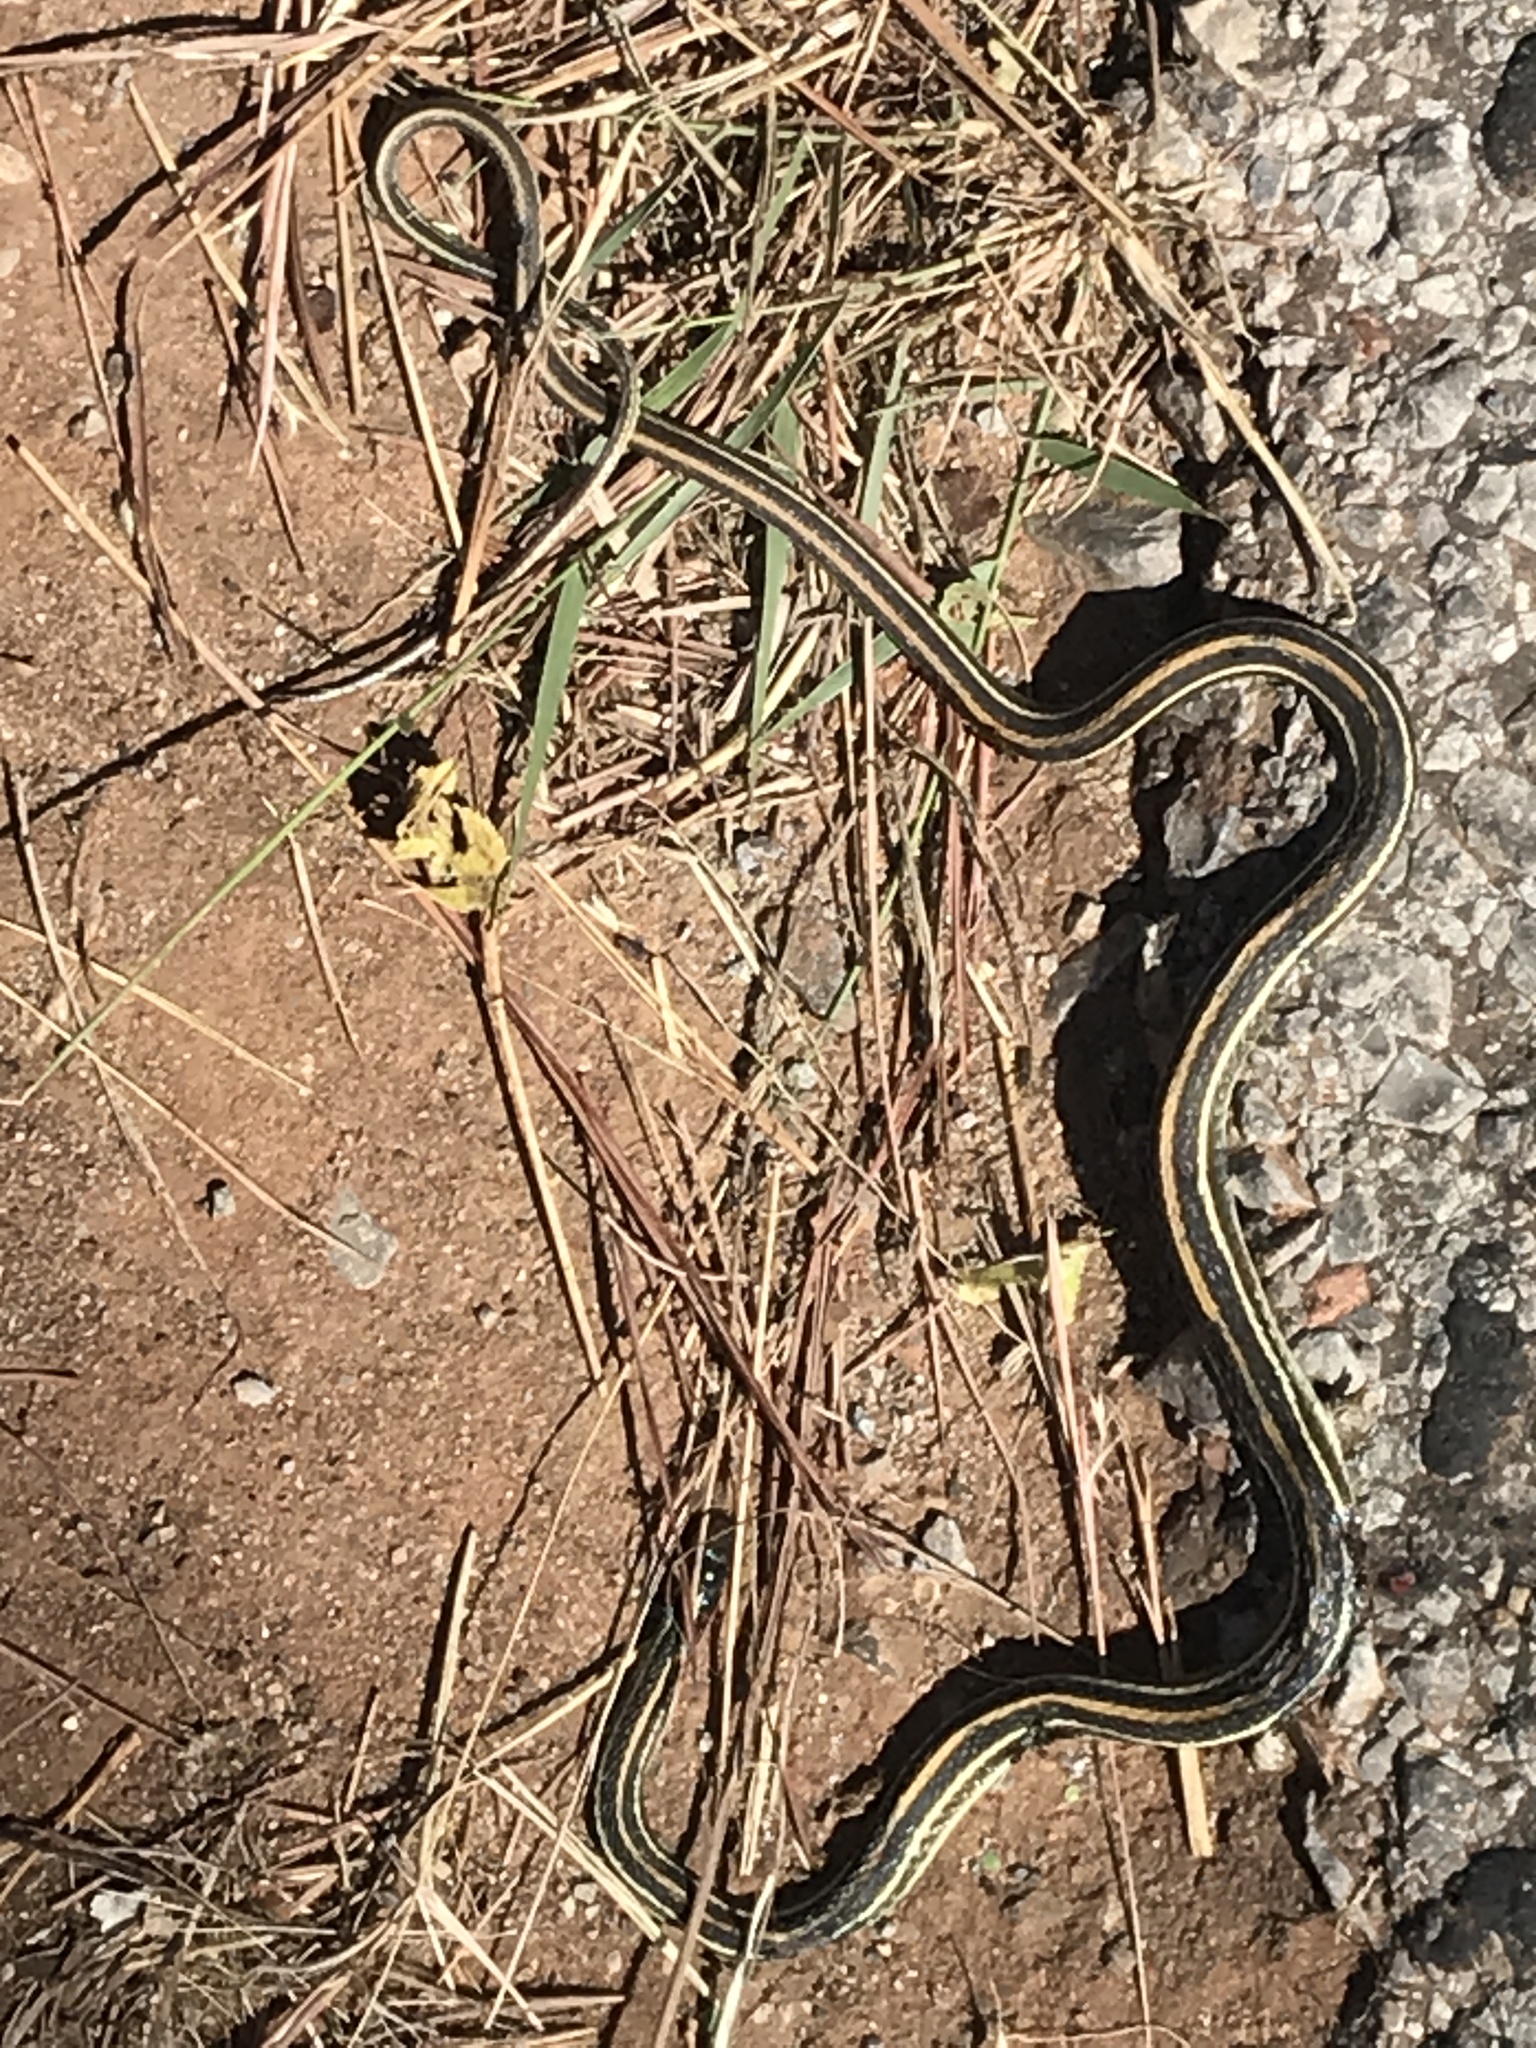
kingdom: Animalia
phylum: Chordata
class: Squamata
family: Colubridae
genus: Thamnophis
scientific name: Thamnophis proximus
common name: Western ribbon snake
